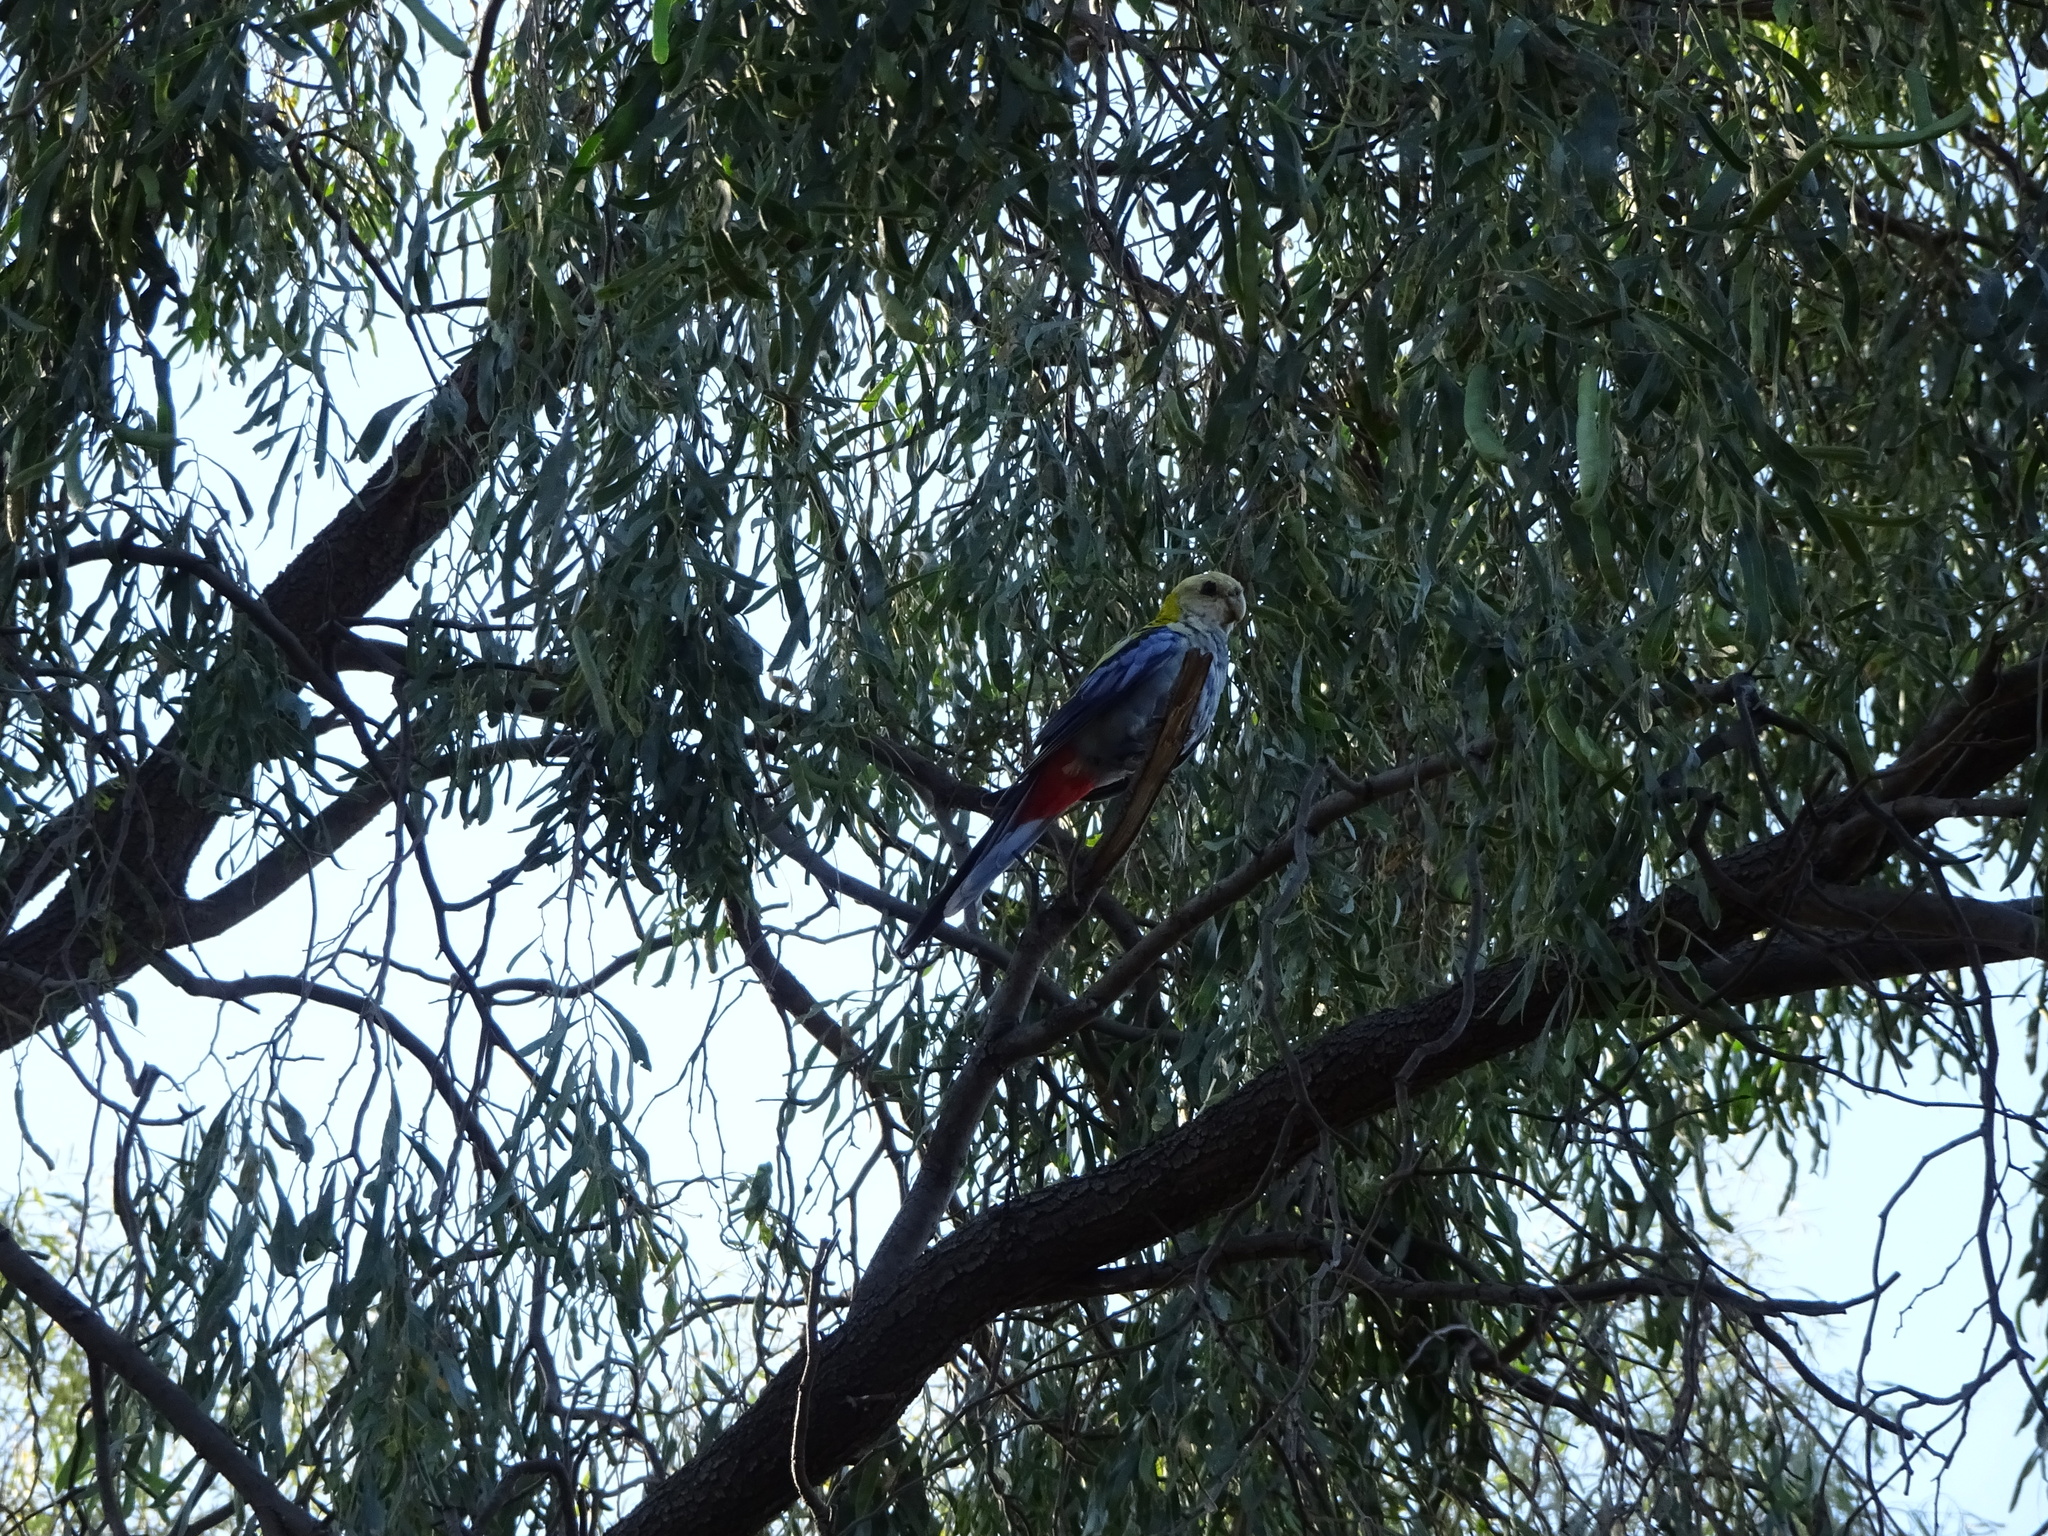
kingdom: Animalia
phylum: Chordata
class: Aves
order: Psittaciformes
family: Psittacidae
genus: Platycercus
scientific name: Platycercus adscitus
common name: Pale-headed rosella
